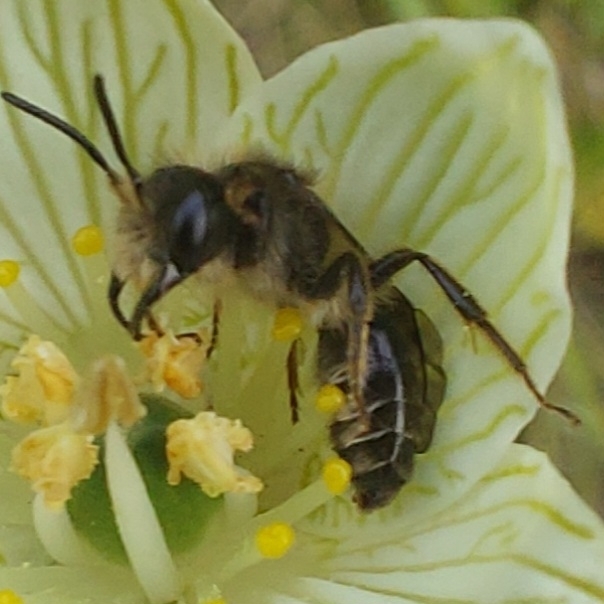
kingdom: Animalia
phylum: Arthropoda
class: Insecta
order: Hymenoptera
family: Andrenidae
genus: Andrena
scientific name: Andrena parnassiae
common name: Parnassia miner
